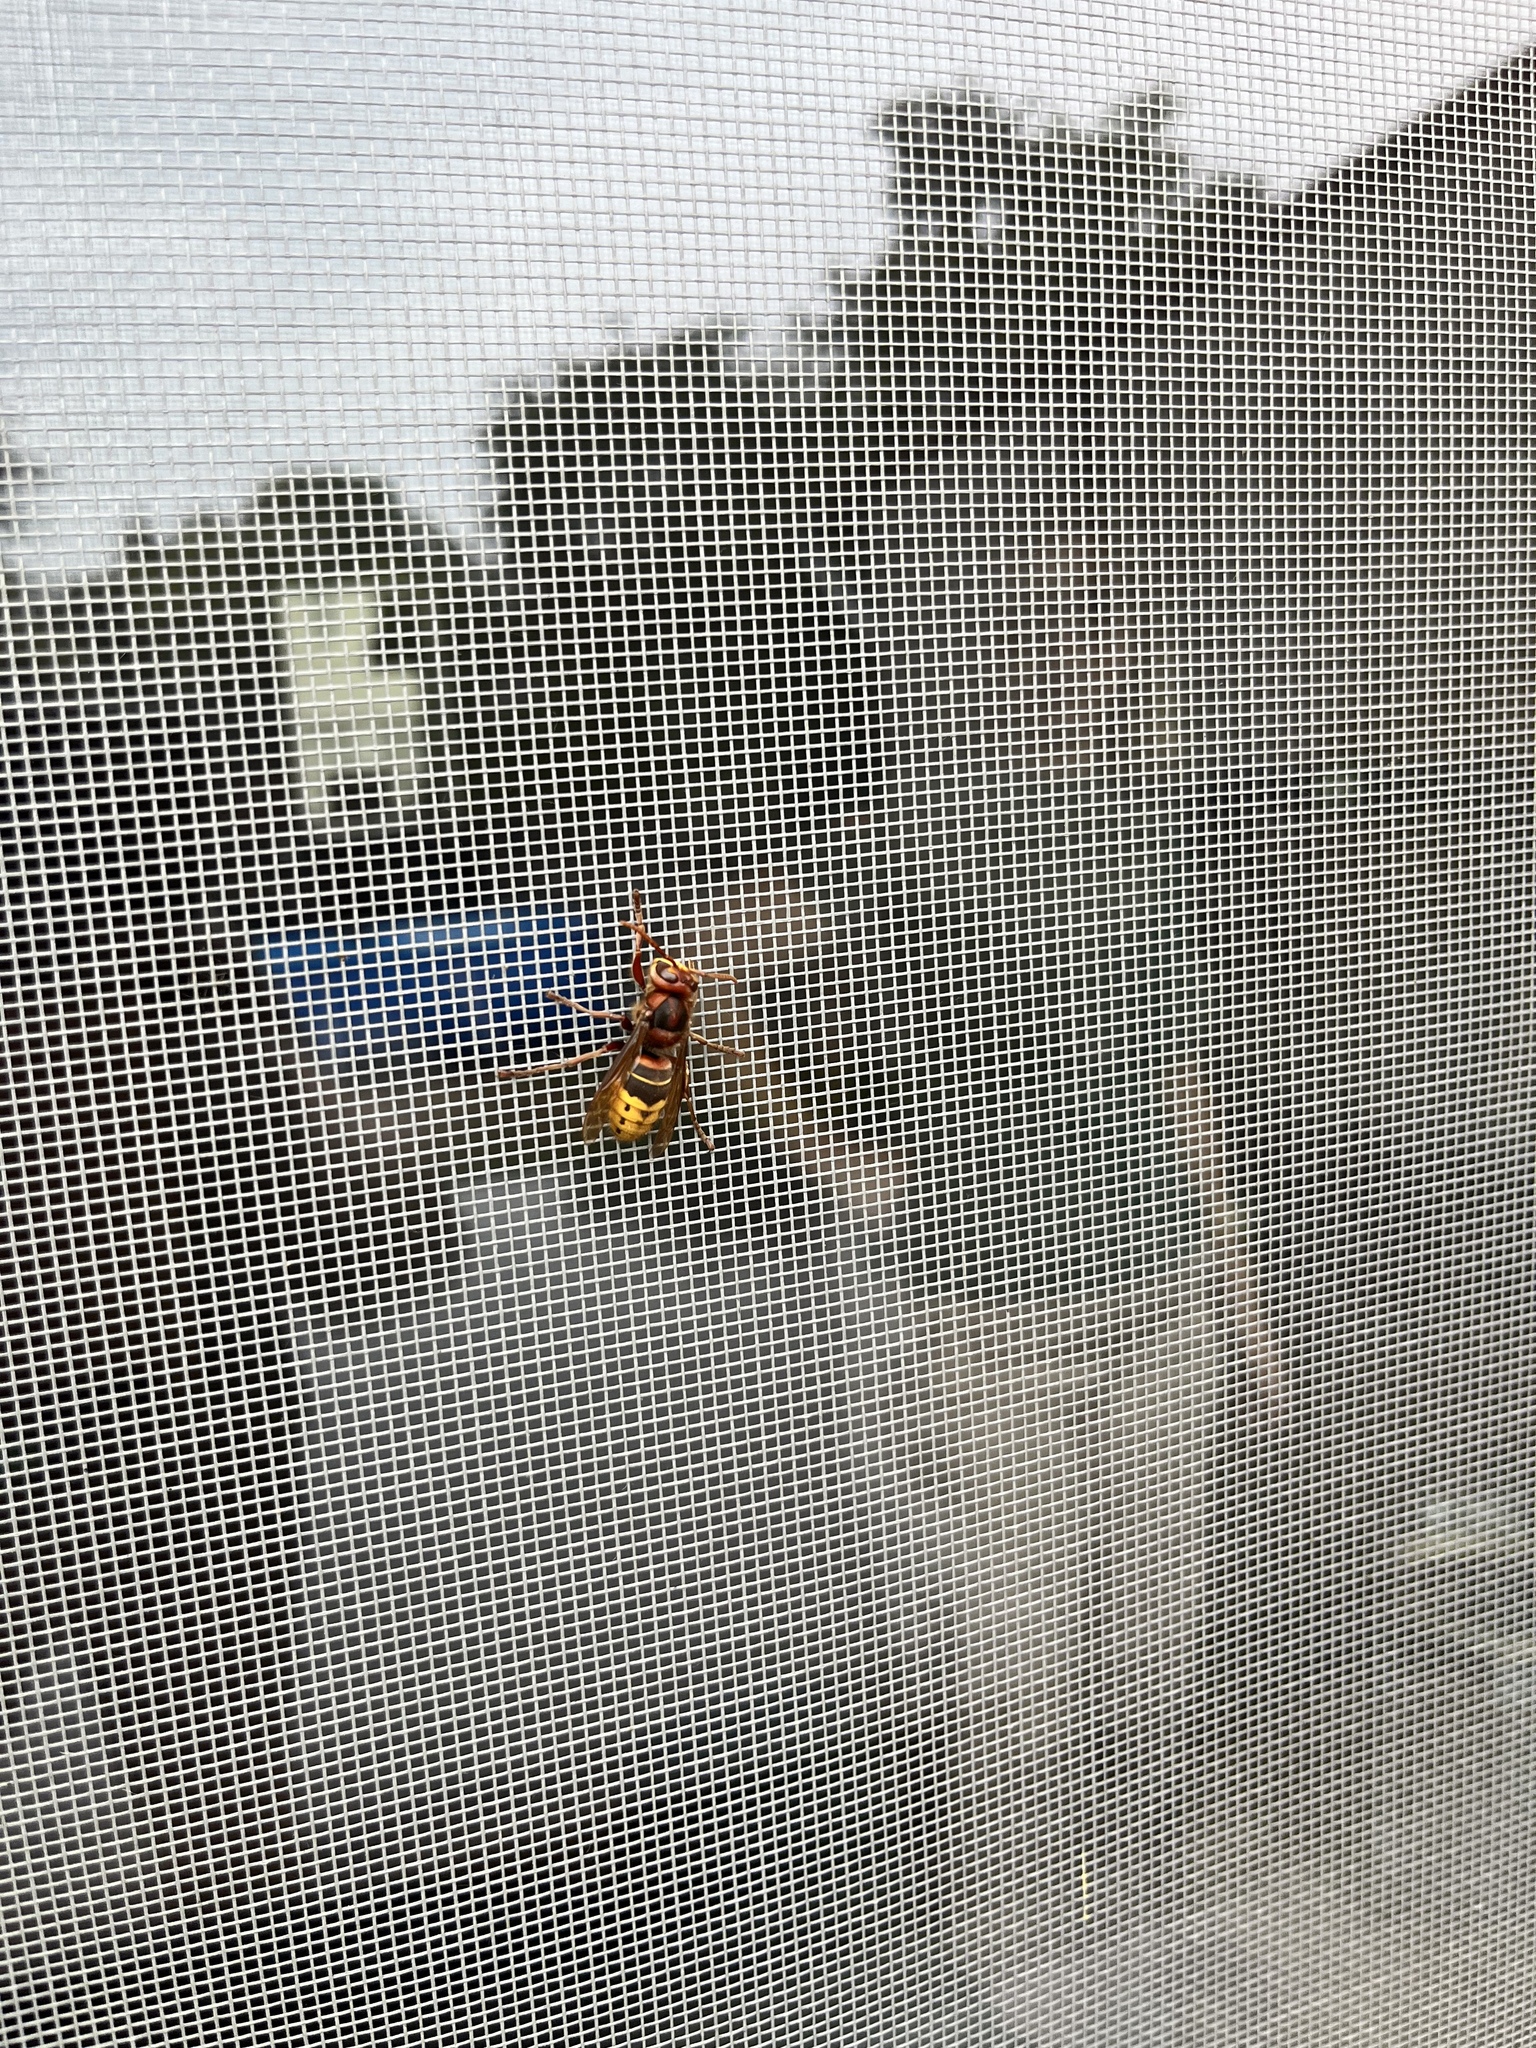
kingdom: Animalia
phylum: Arthropoda
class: Insecta
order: Hymenoptera
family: Vespidae
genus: Vespa
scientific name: Vespa crabro
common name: Hornet
